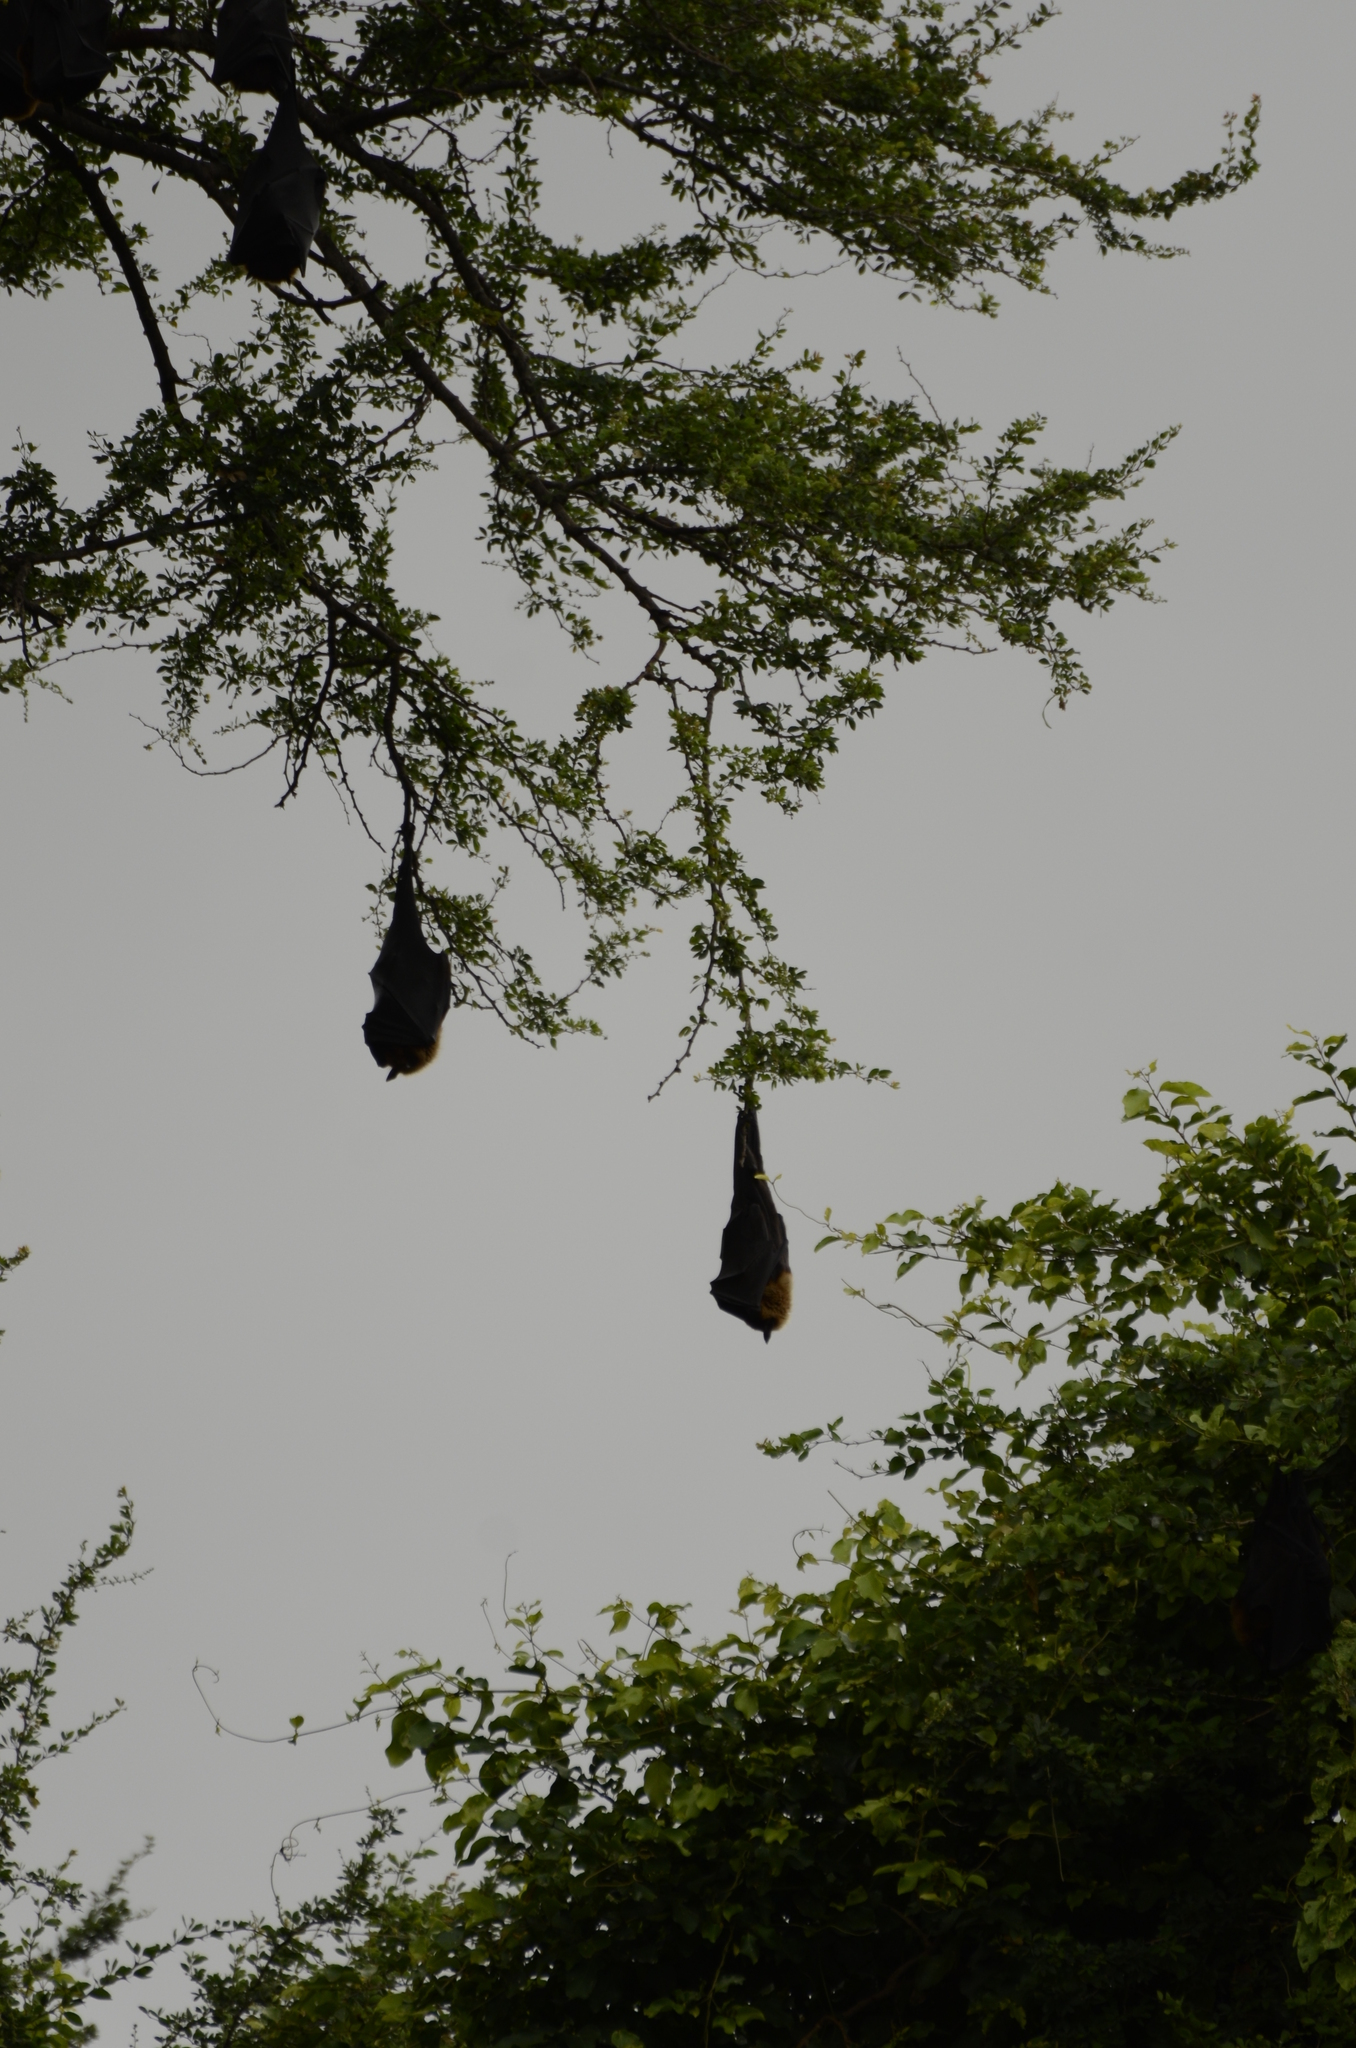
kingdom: Animalia
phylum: Chordata
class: Mammalia
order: Chiroptera
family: Pteropodidae
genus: Pteropus
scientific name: Pteropus vampyrus
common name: Large flying fox
